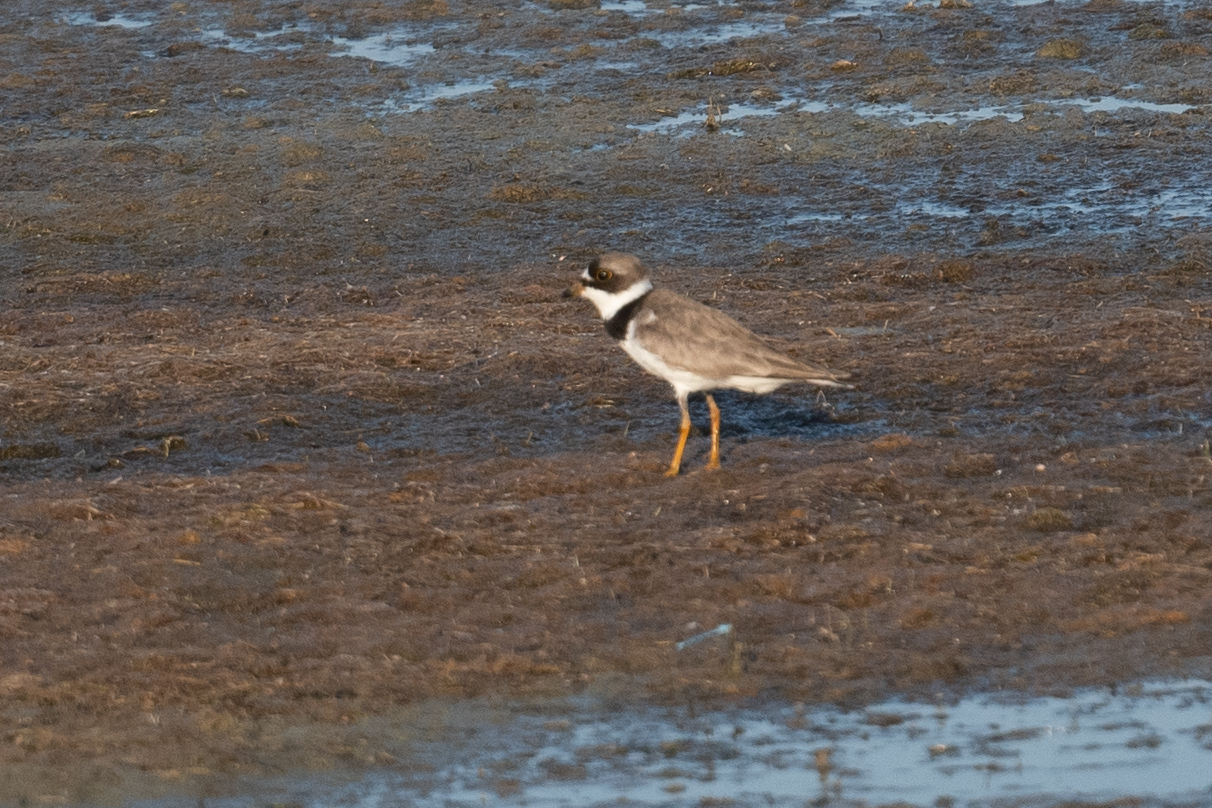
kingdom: Animalia
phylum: Chordata
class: Aves
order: Charadriiformes
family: Charadriidae
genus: Charadrius
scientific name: Charadrius semipalmatus
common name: Semipalmated plover
